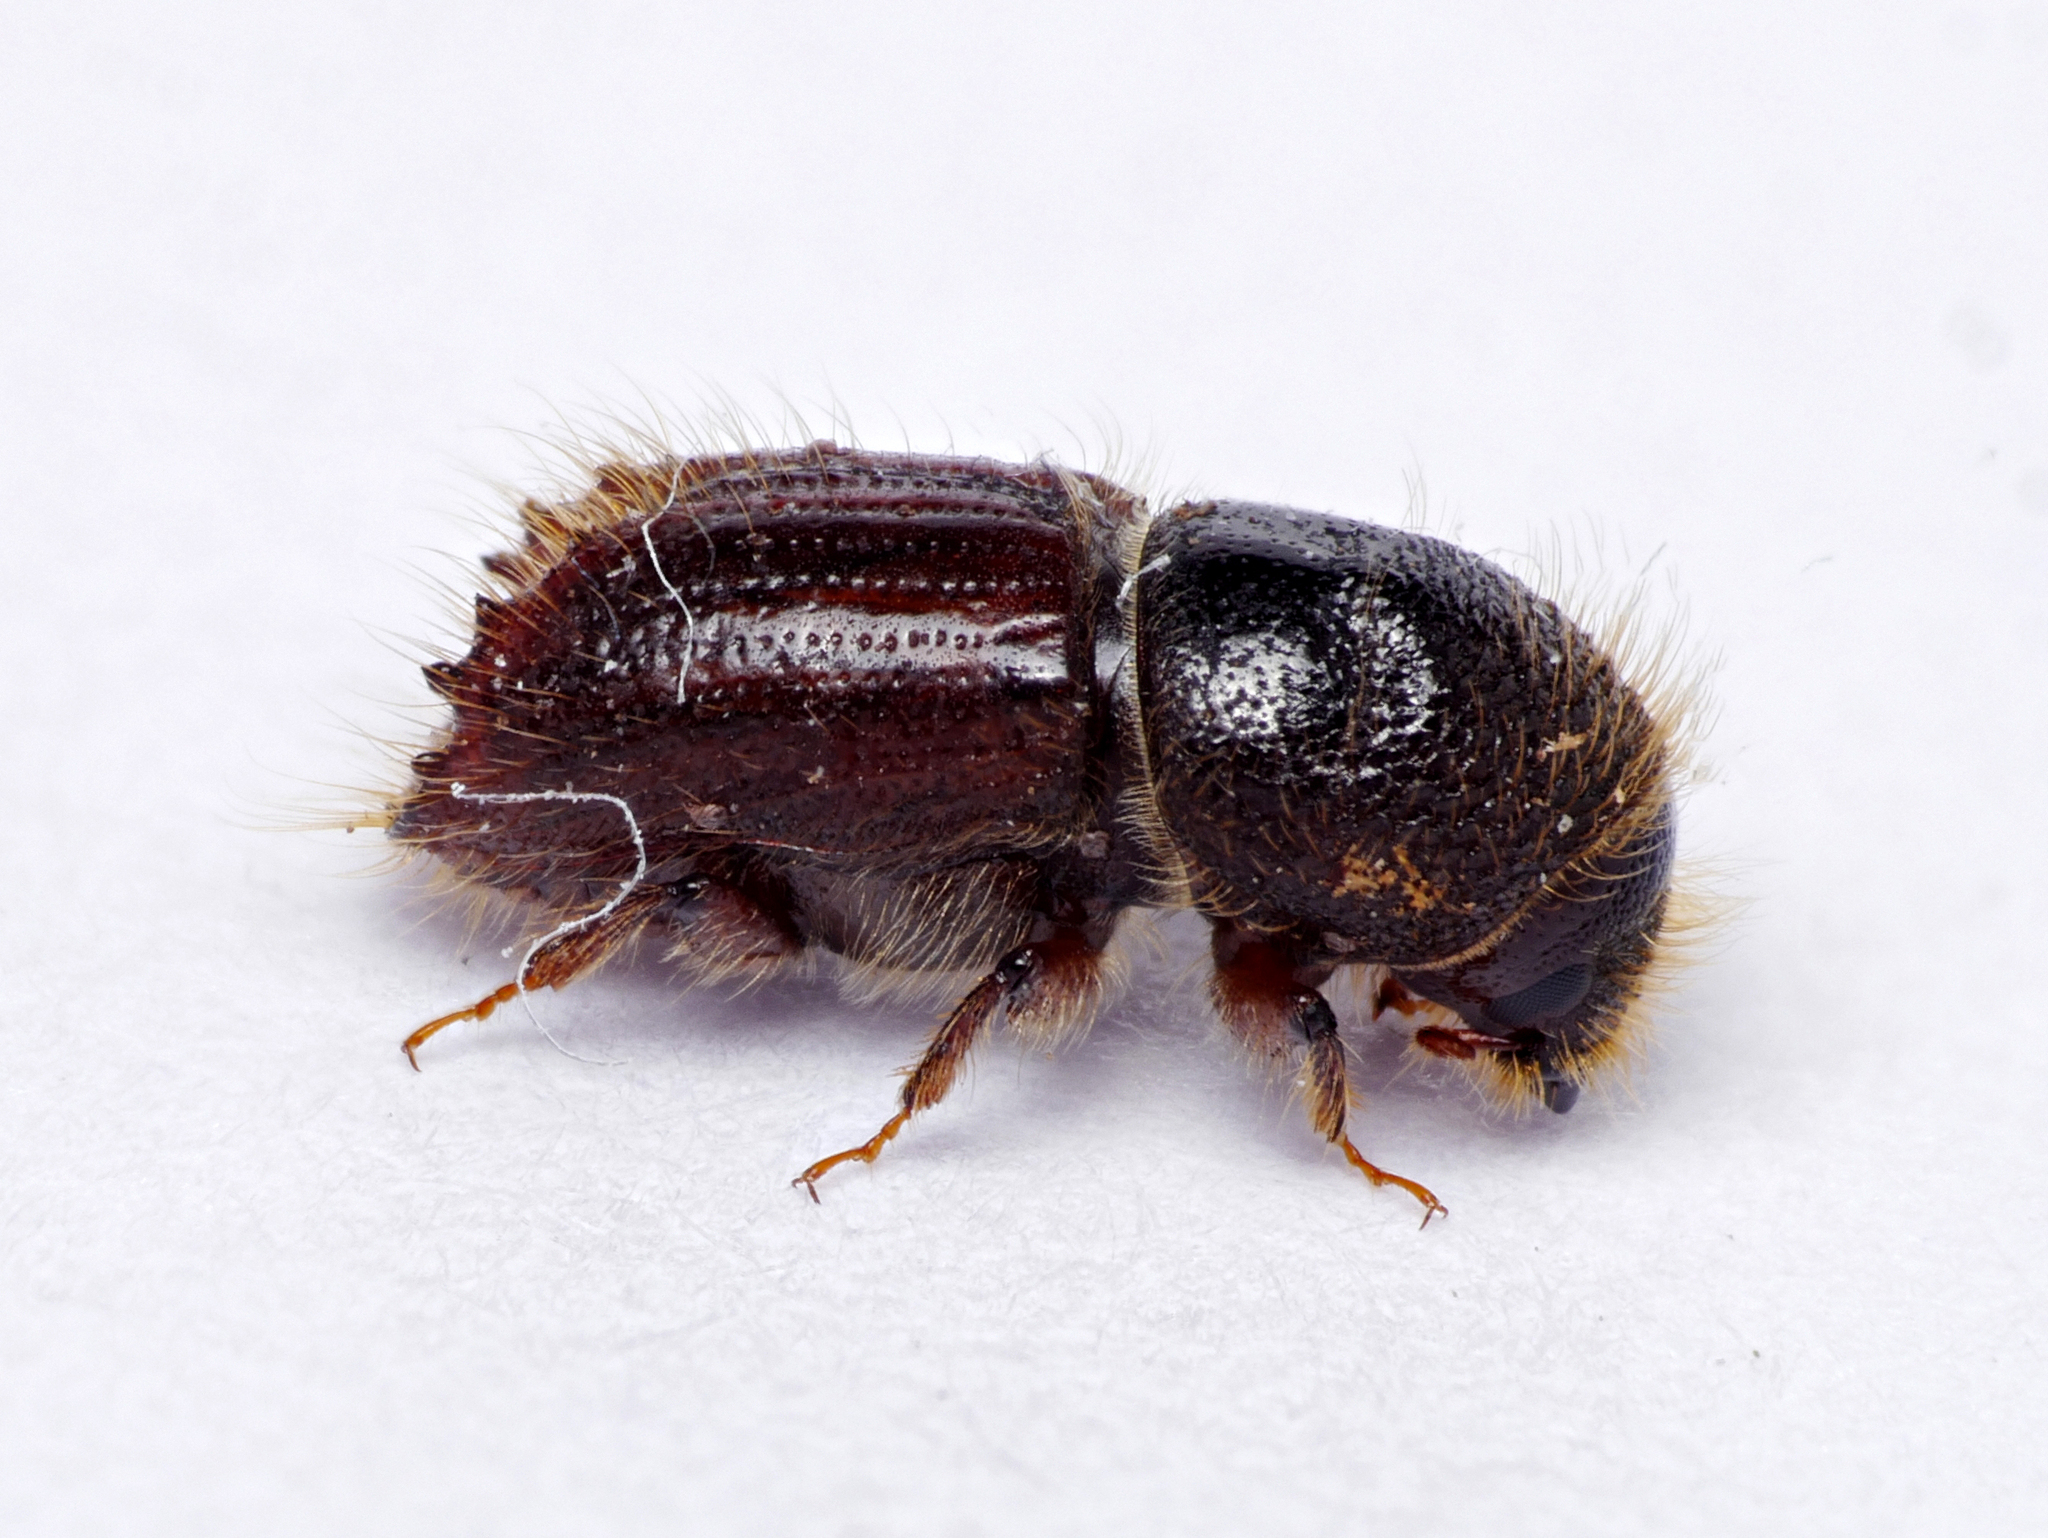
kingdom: Animalia
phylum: Arthropoda
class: Insecta
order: Coleoptera
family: Curculionidae
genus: Ips
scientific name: Ips typographus
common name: Eight-toothed spruce bark beetle
